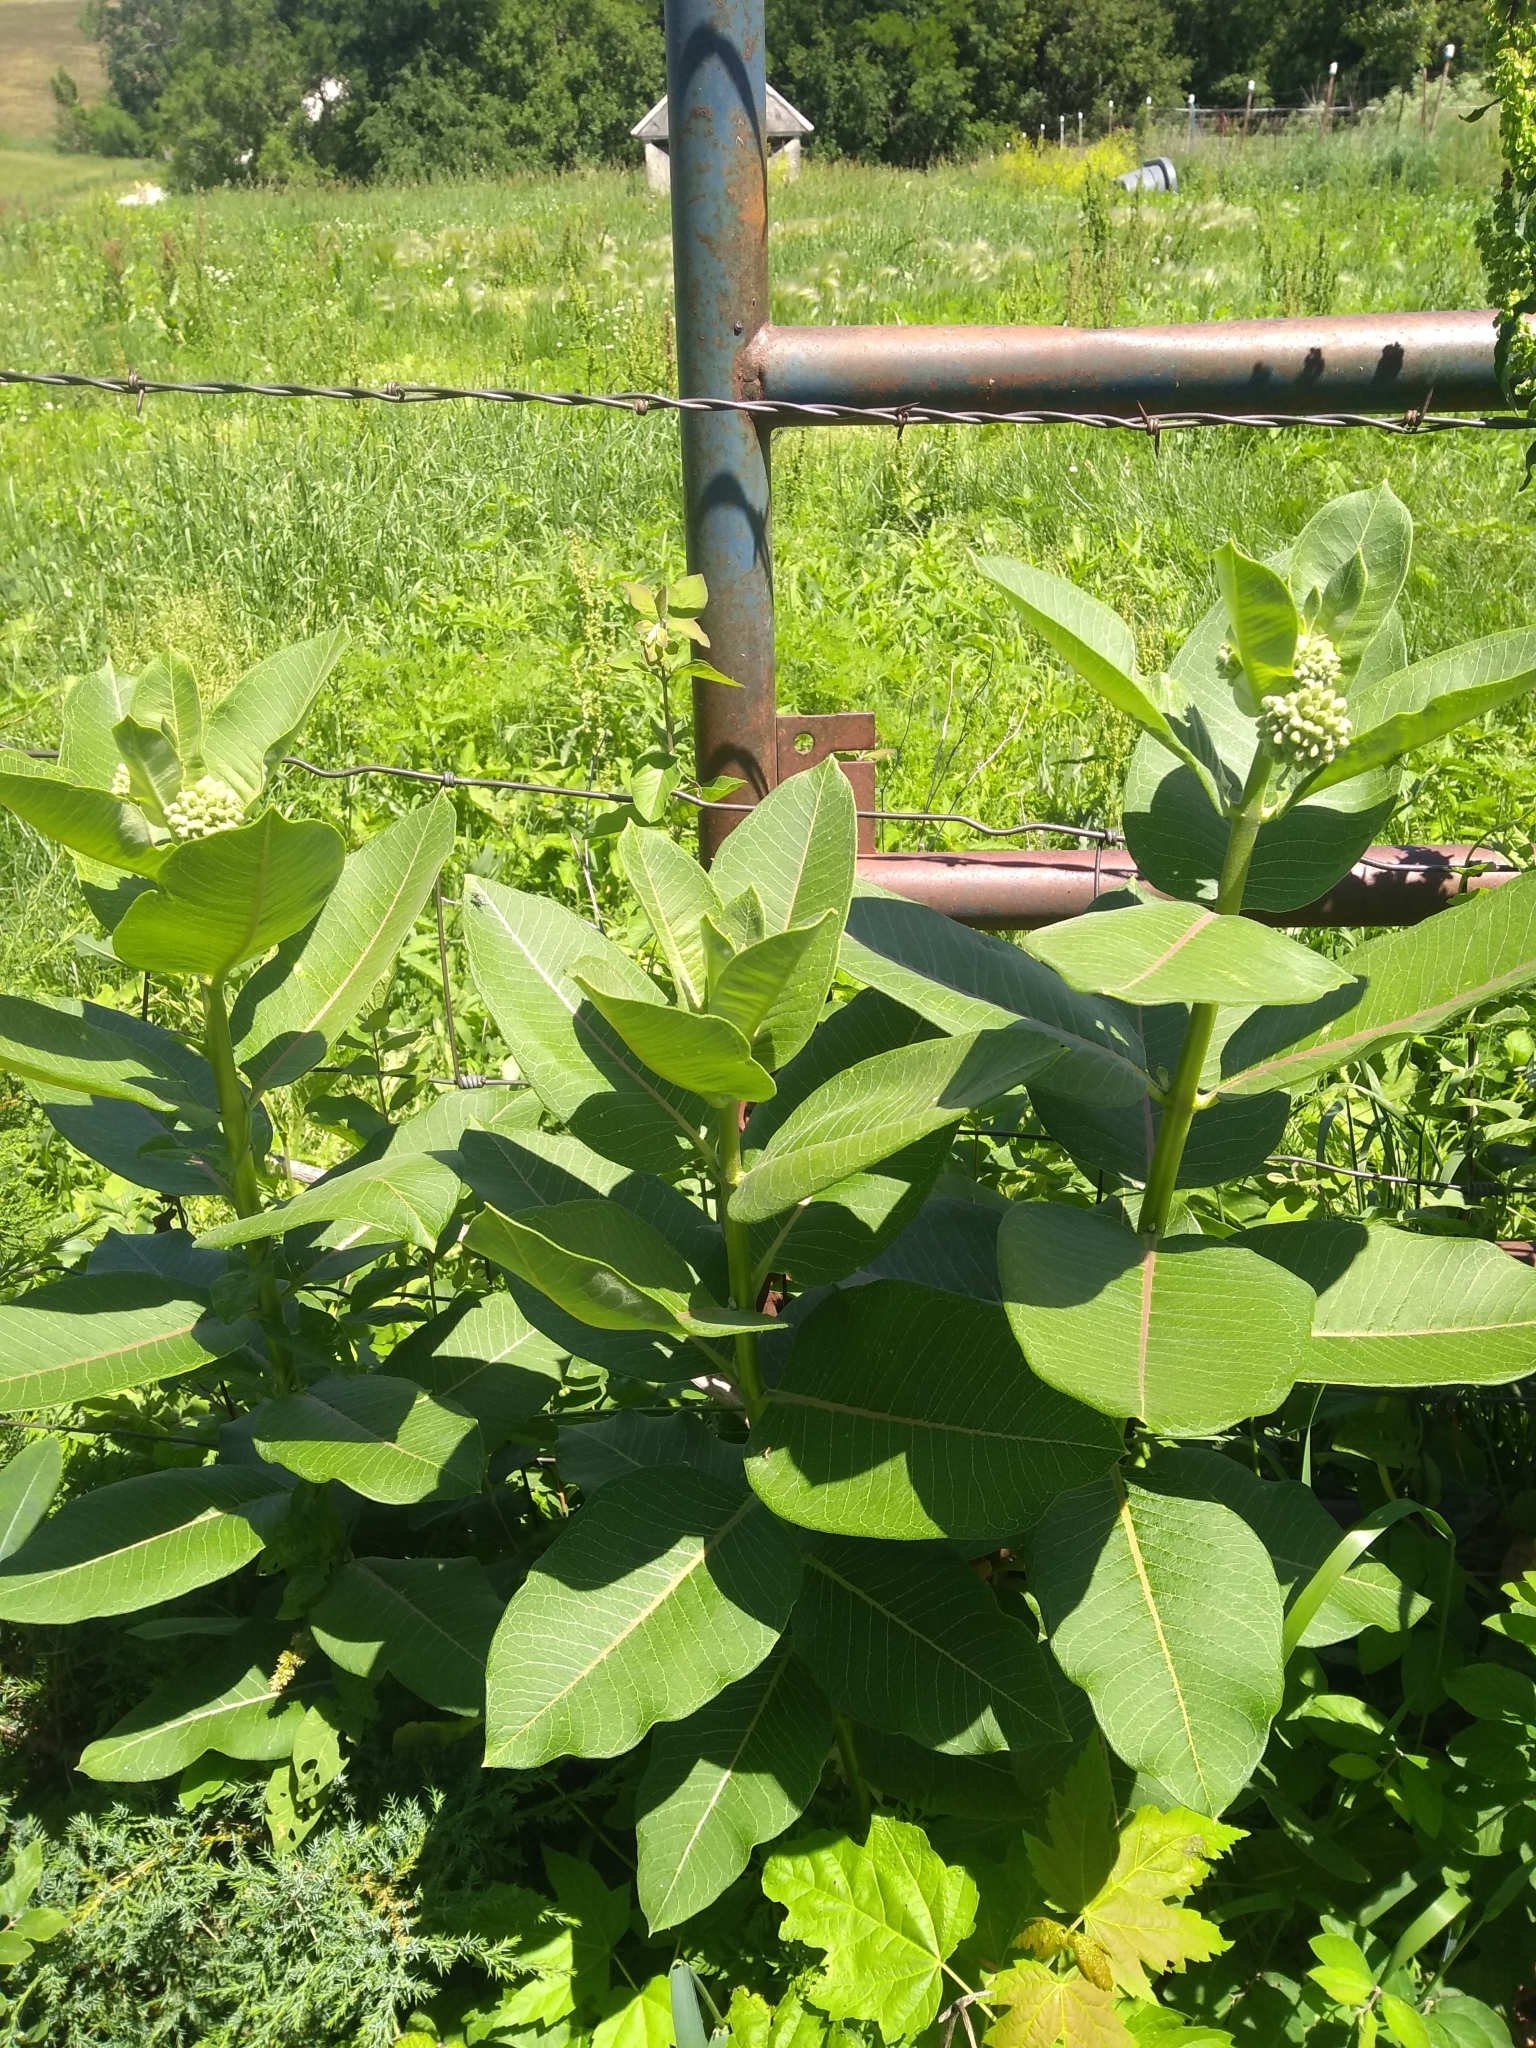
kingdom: Plantae
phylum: Tracheophyta
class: Magnoliopsida
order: Gentianales
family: Apocynaceae
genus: Asclepias
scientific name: Asclepias syriaca
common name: Common milkweed
